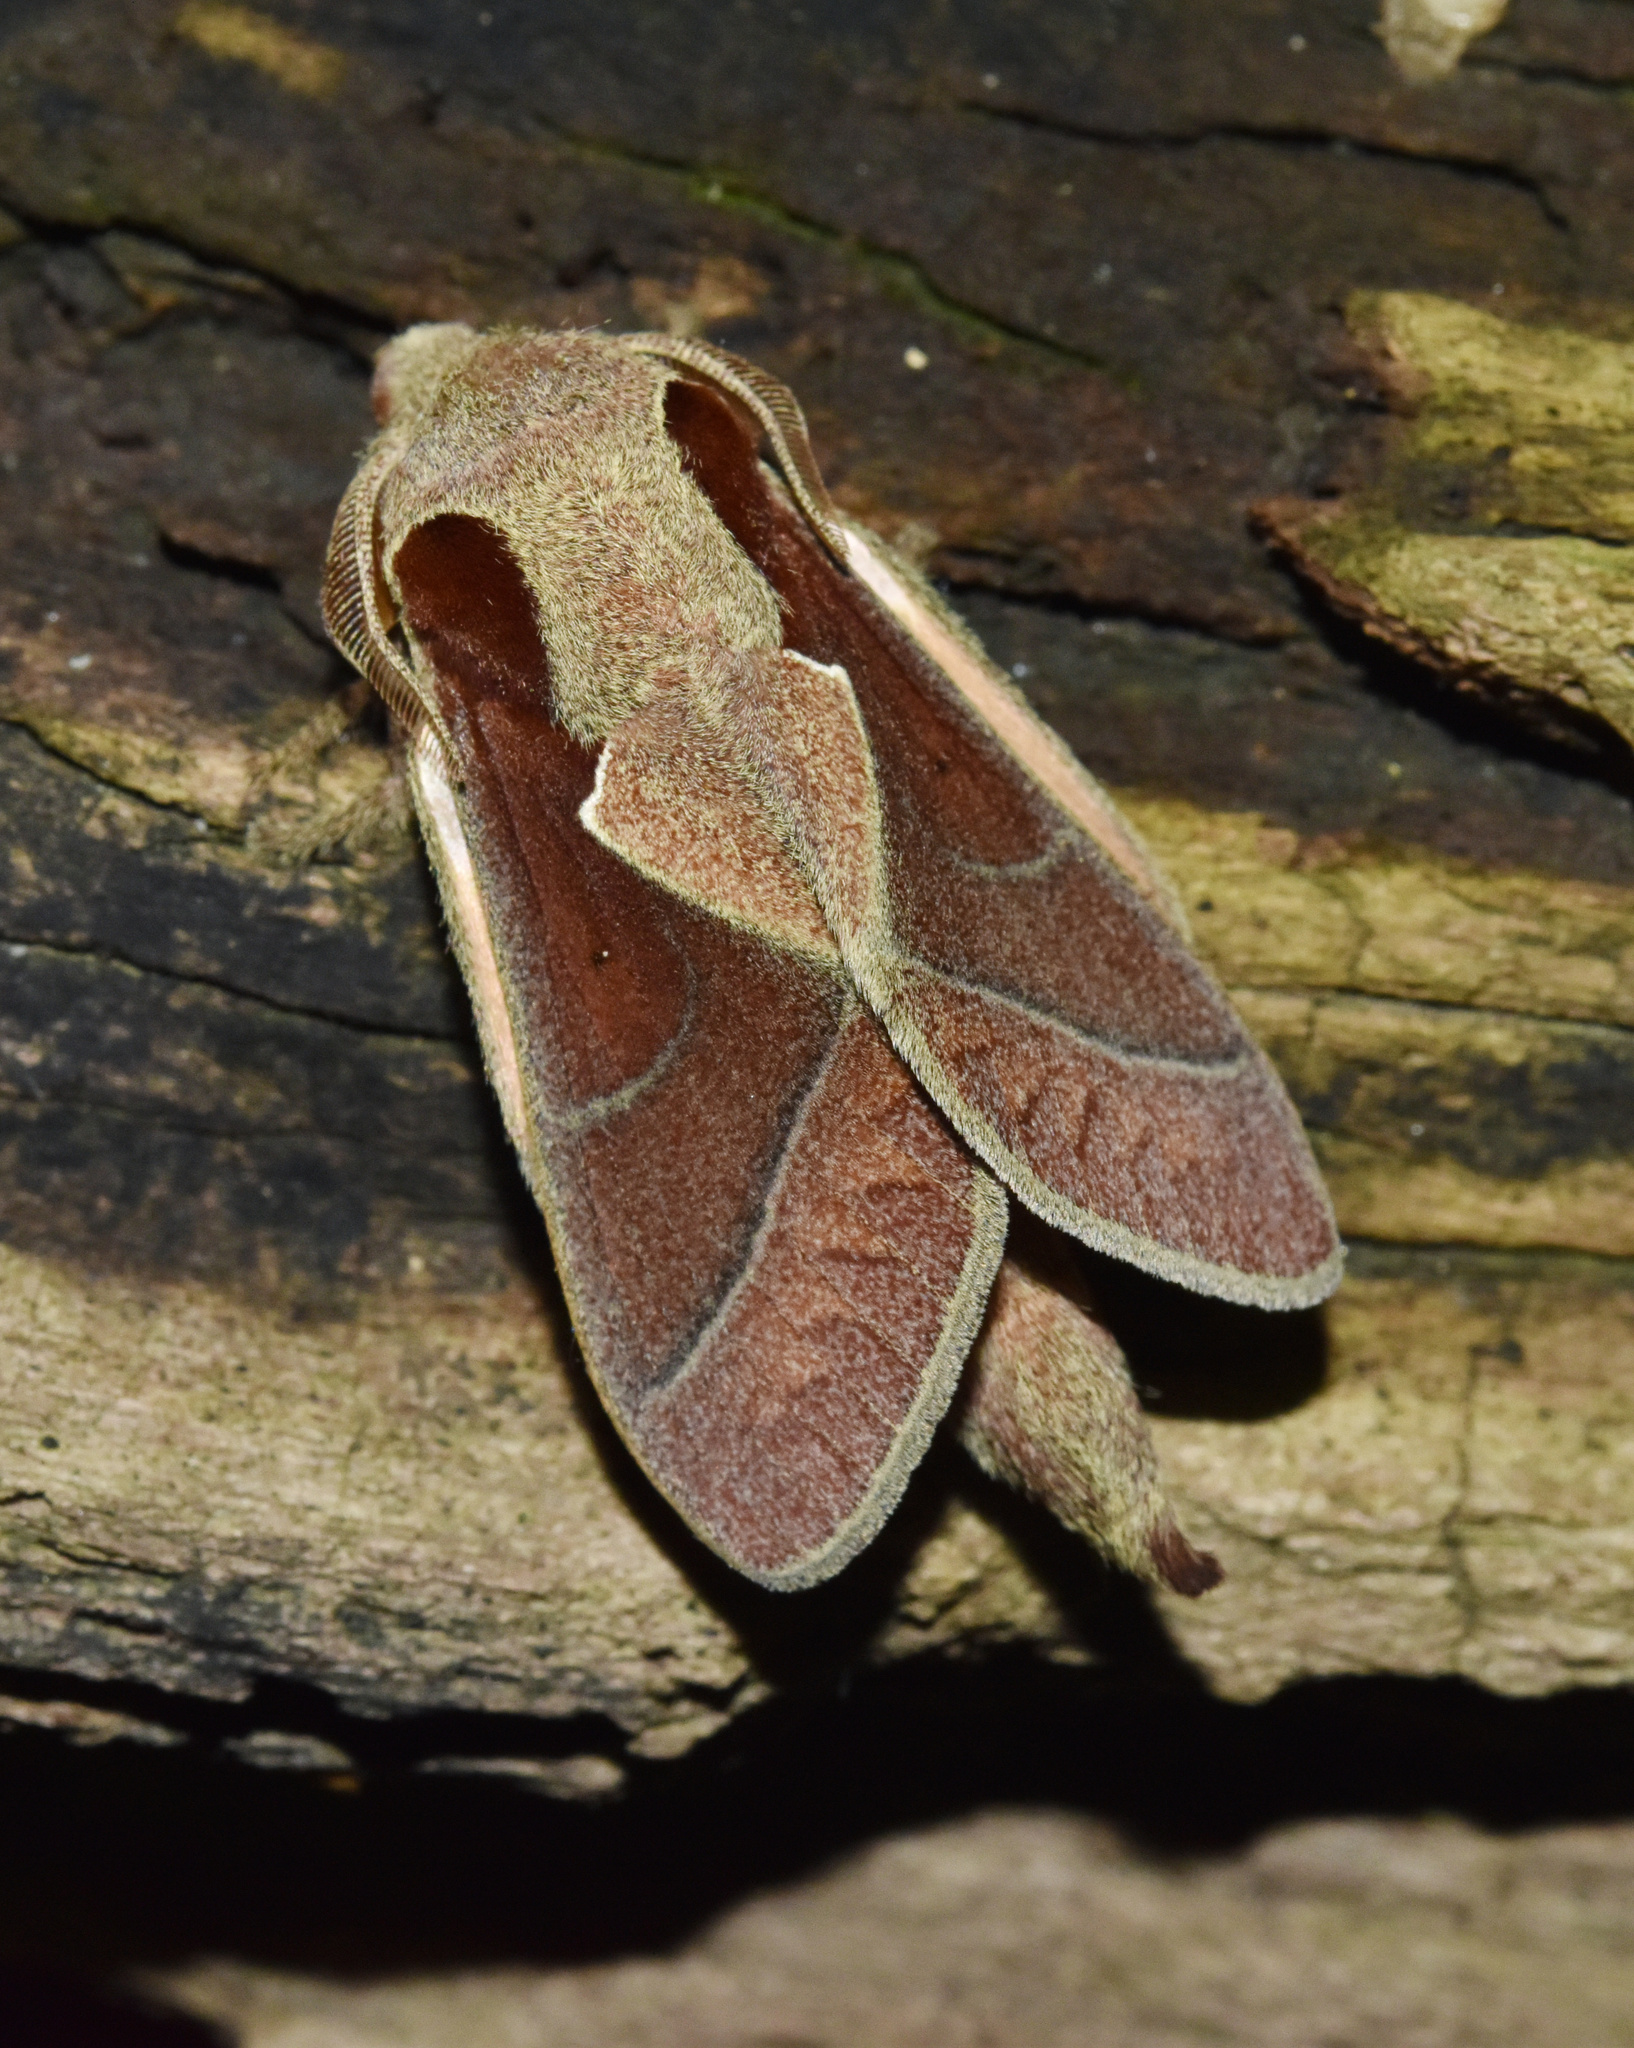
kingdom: Animalia
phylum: Arthropoda
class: Insecta
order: Lepidoptera
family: Lasiocampidae
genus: Stoermeriana
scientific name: Stoermeriana scapulosa
